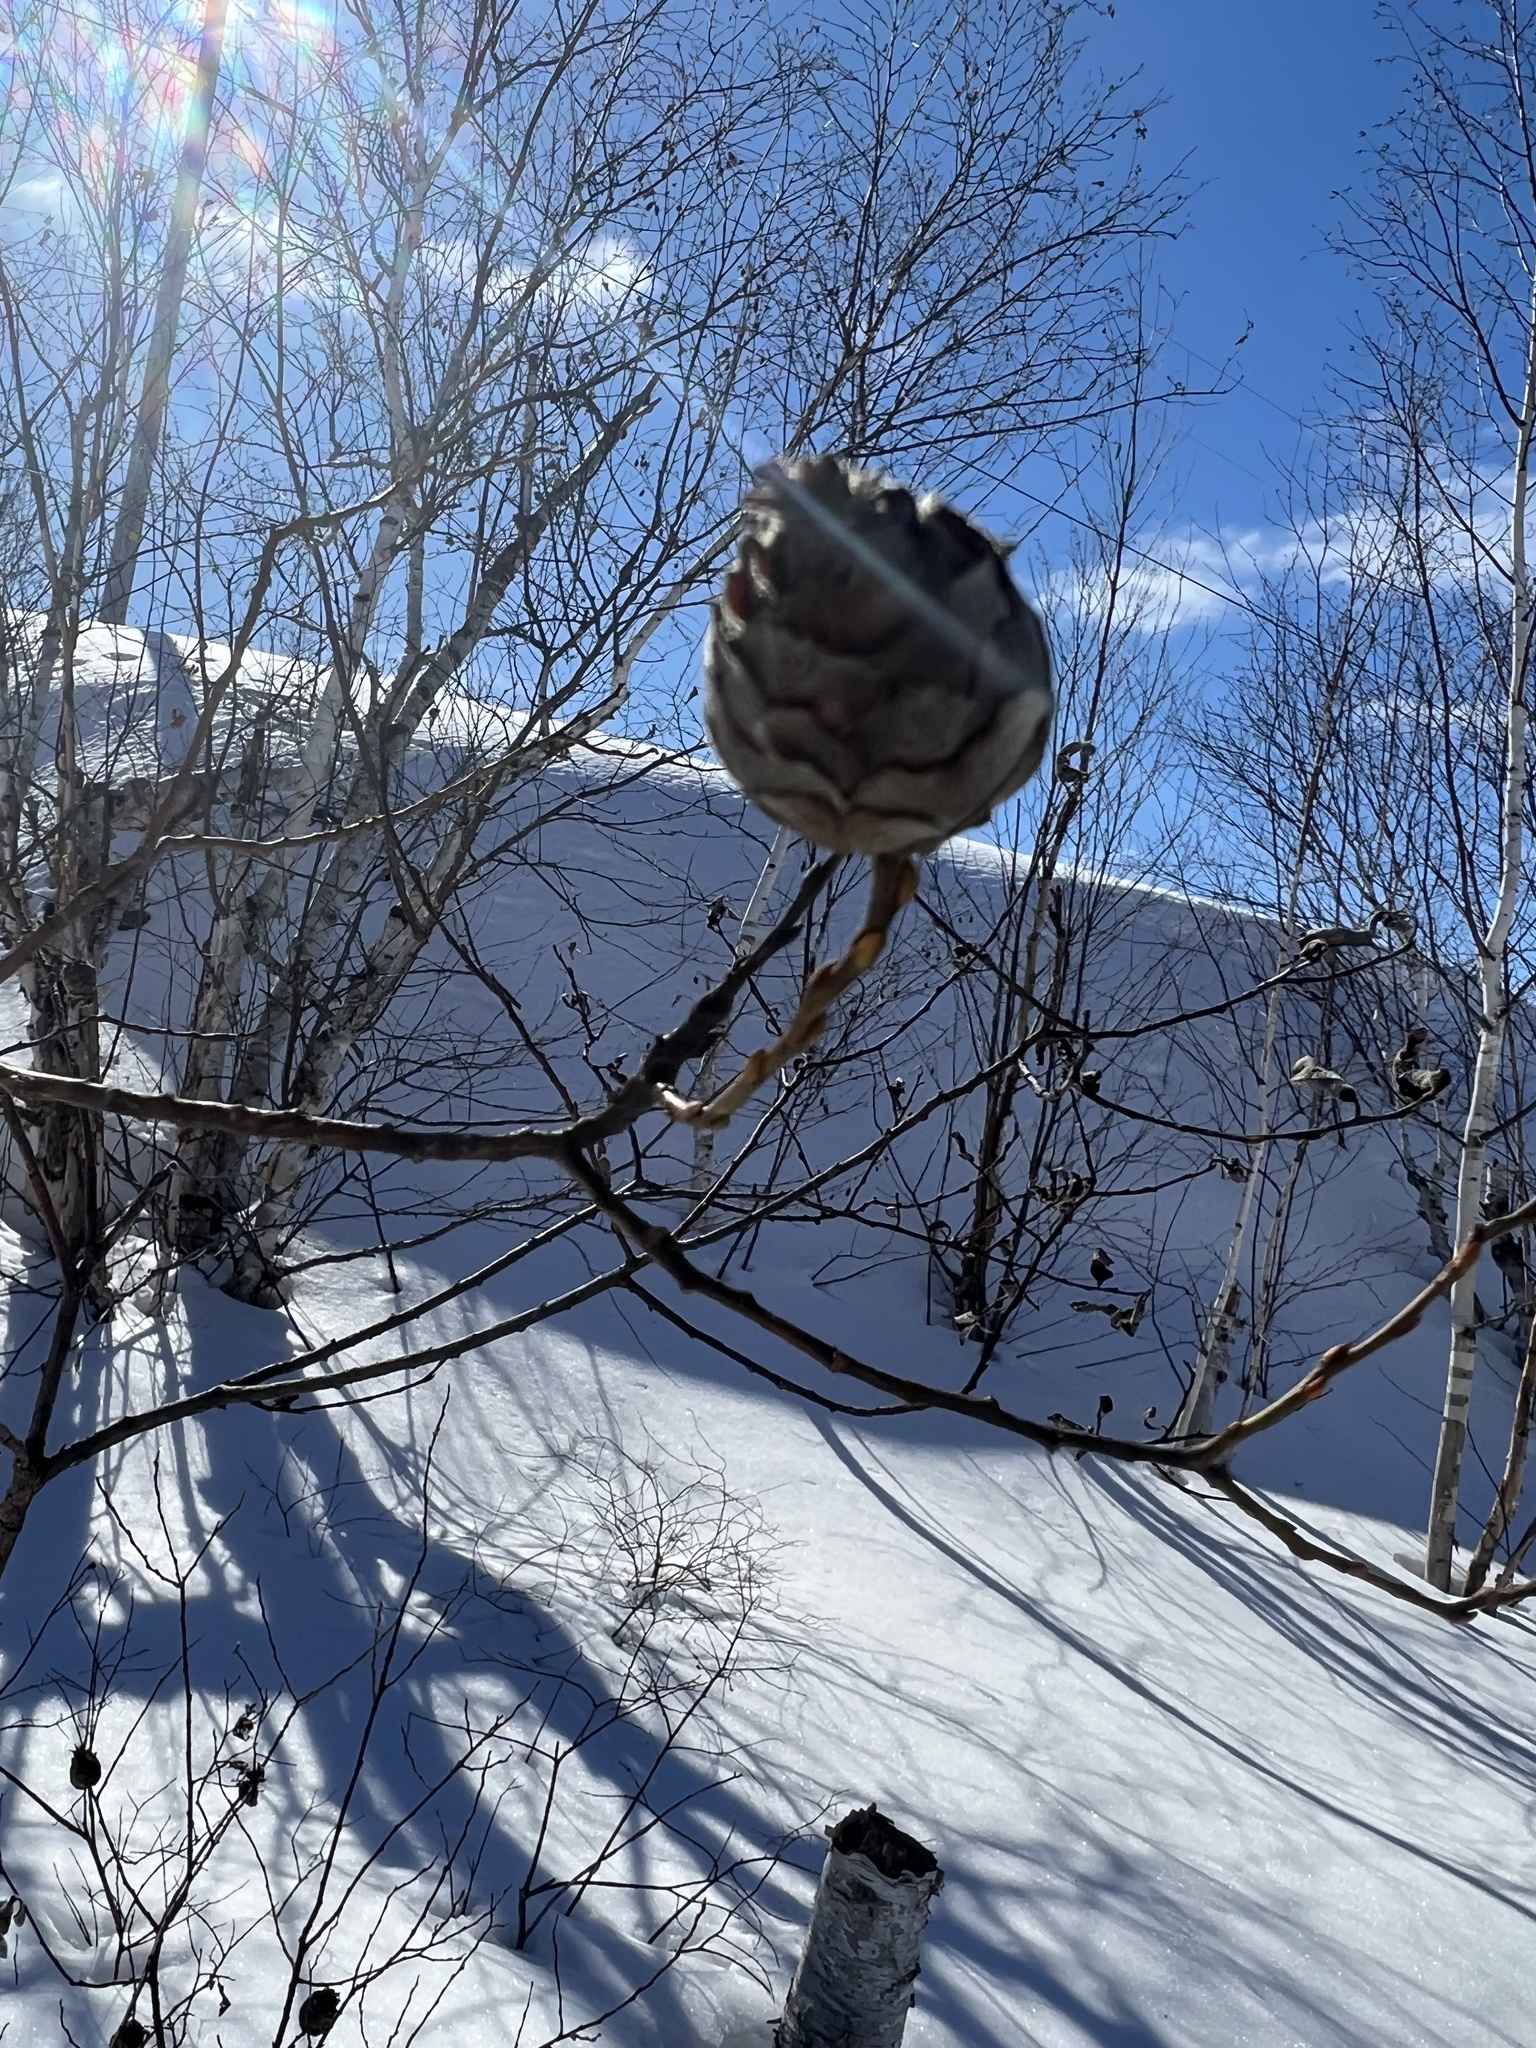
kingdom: Animalia
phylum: Arthropoda
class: Insecta
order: Diptera
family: Cecidomyiidae
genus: Rabdophaga
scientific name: Rabdophaga strobiloides
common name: Willow pinecone gall midge
